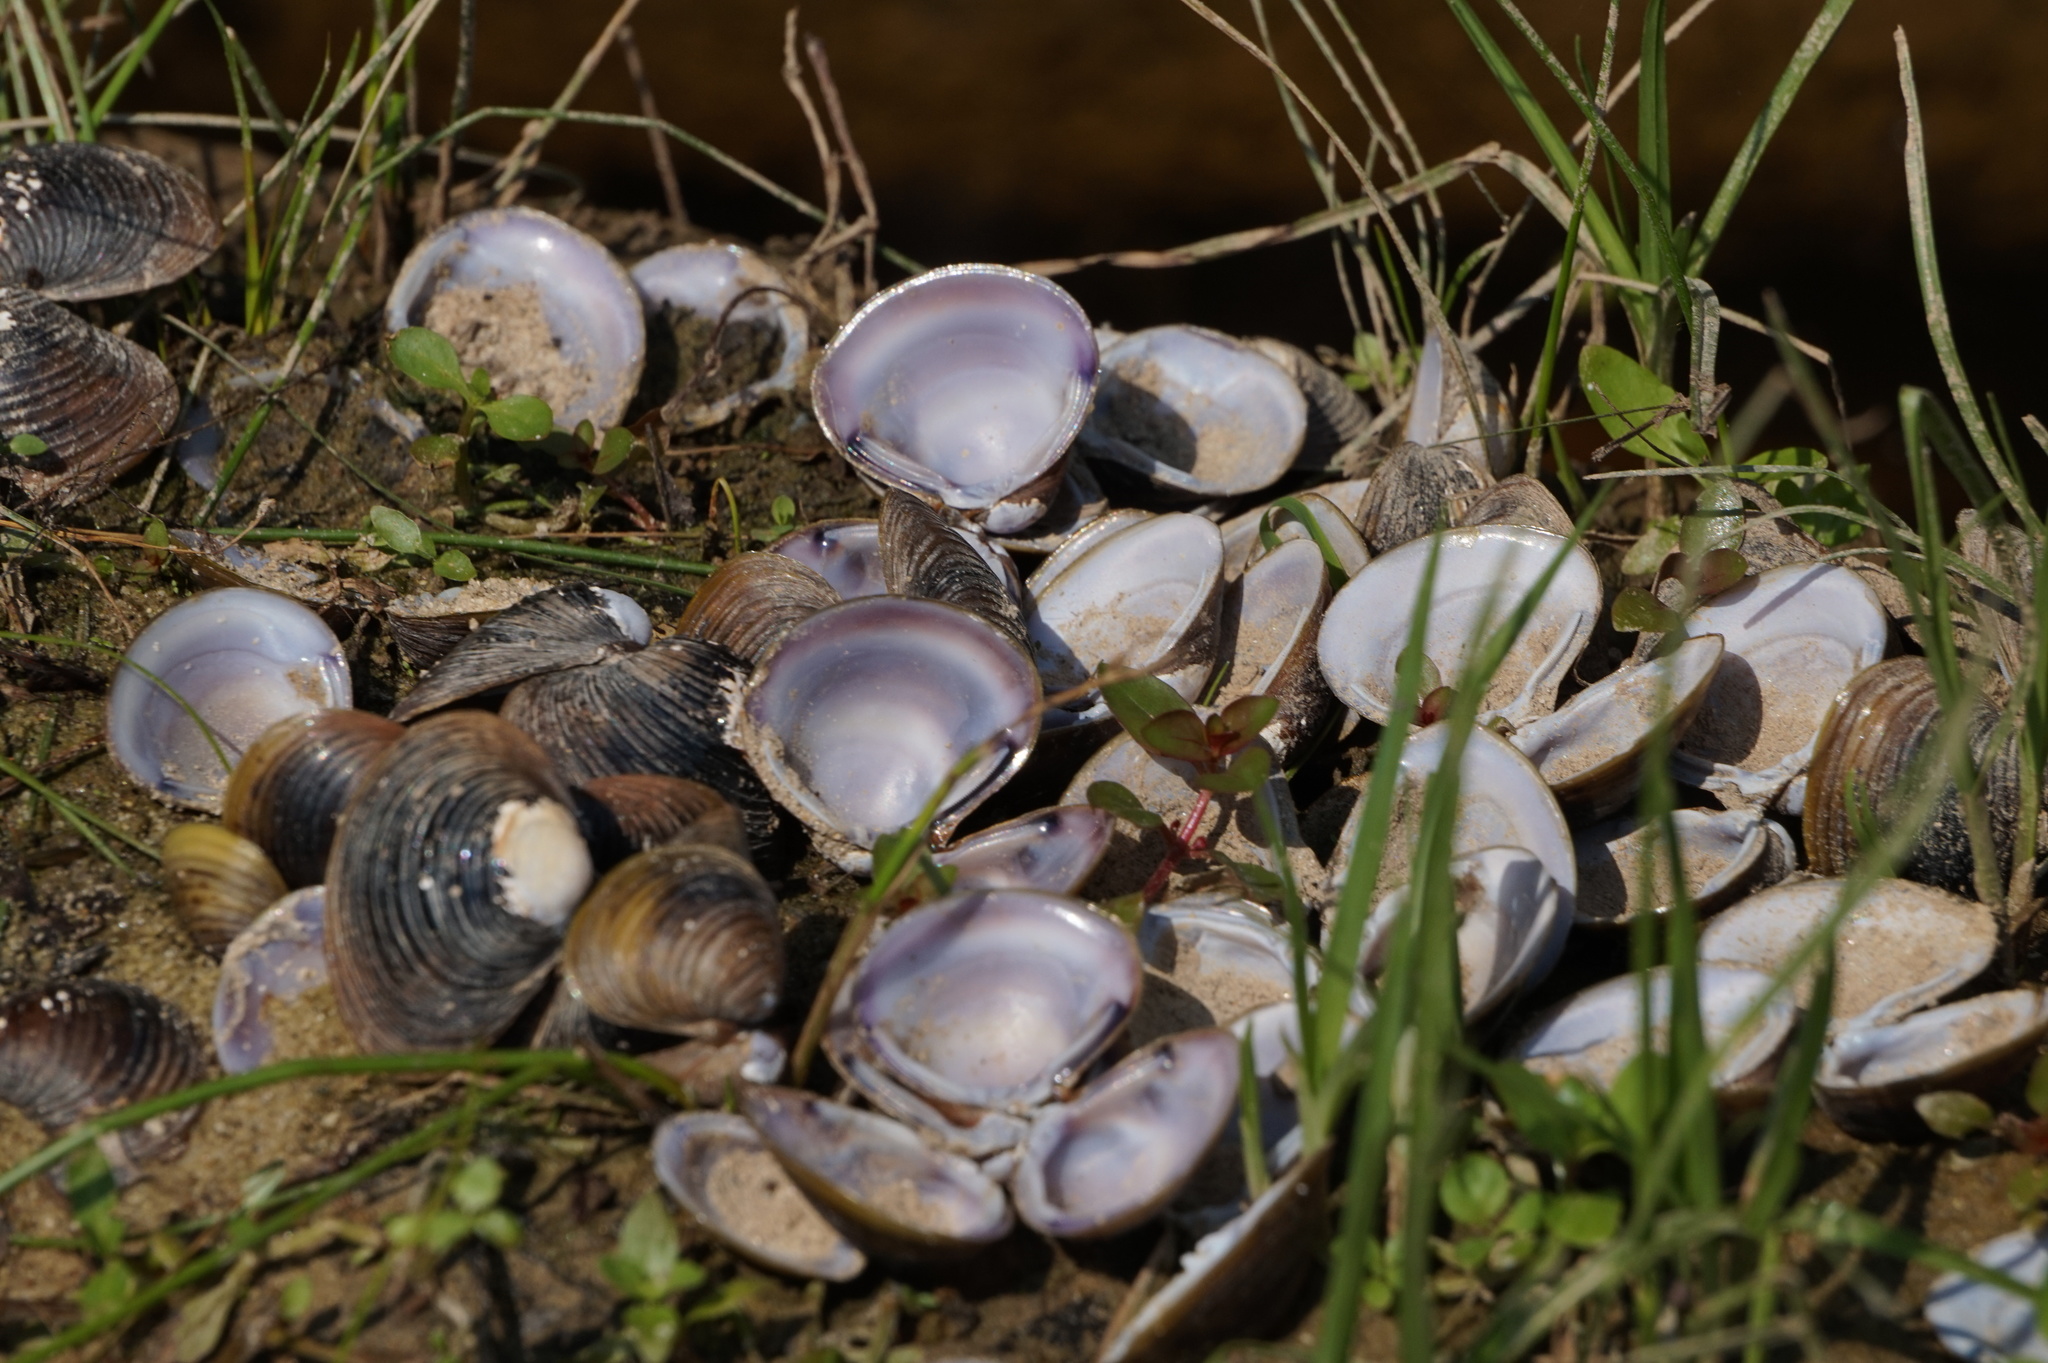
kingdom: Animalia
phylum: Mollusca
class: Bivalvia
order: Venerida
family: Cyrenidae
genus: Corbicula
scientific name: Corbicula fluminea
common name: Asian clam
